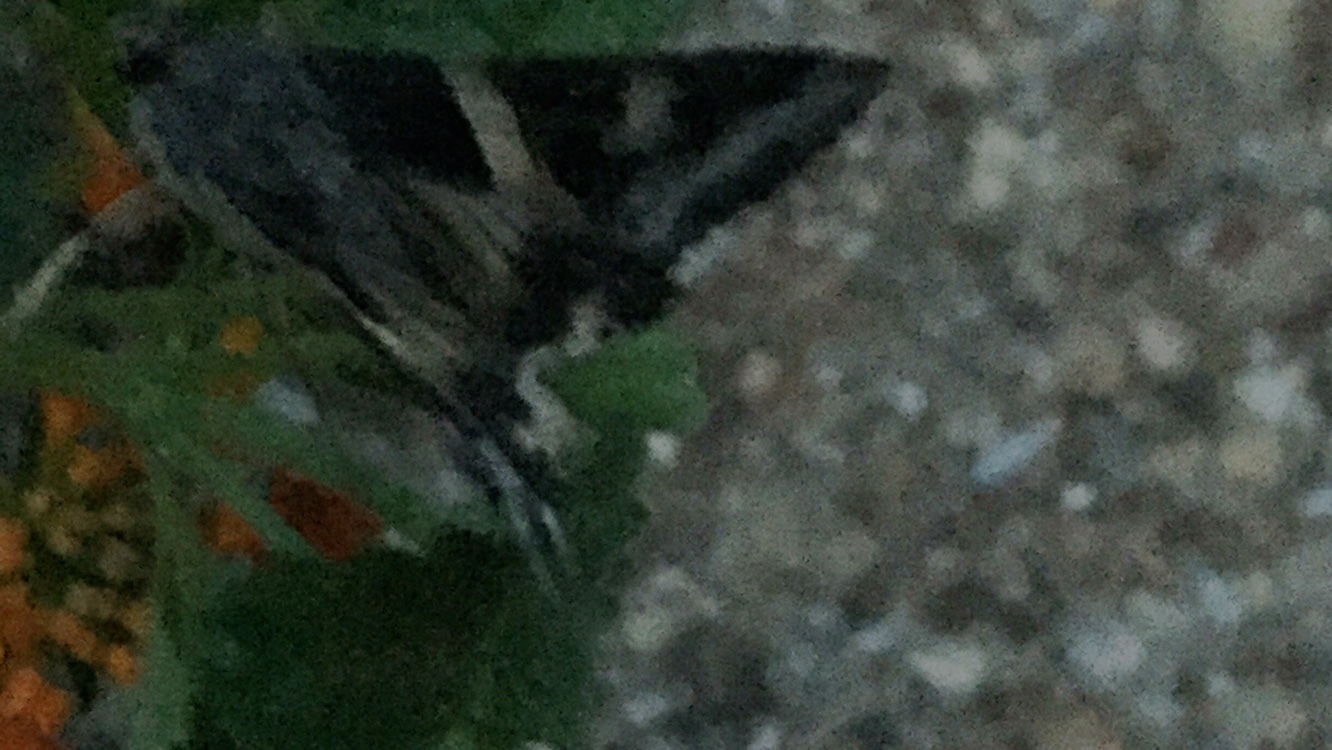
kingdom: Animalia
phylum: Arthropoda
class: Insecta
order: Lepidoptera
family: Erebidae
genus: Melipotis
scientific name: Melipotis indomita
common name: Moth
